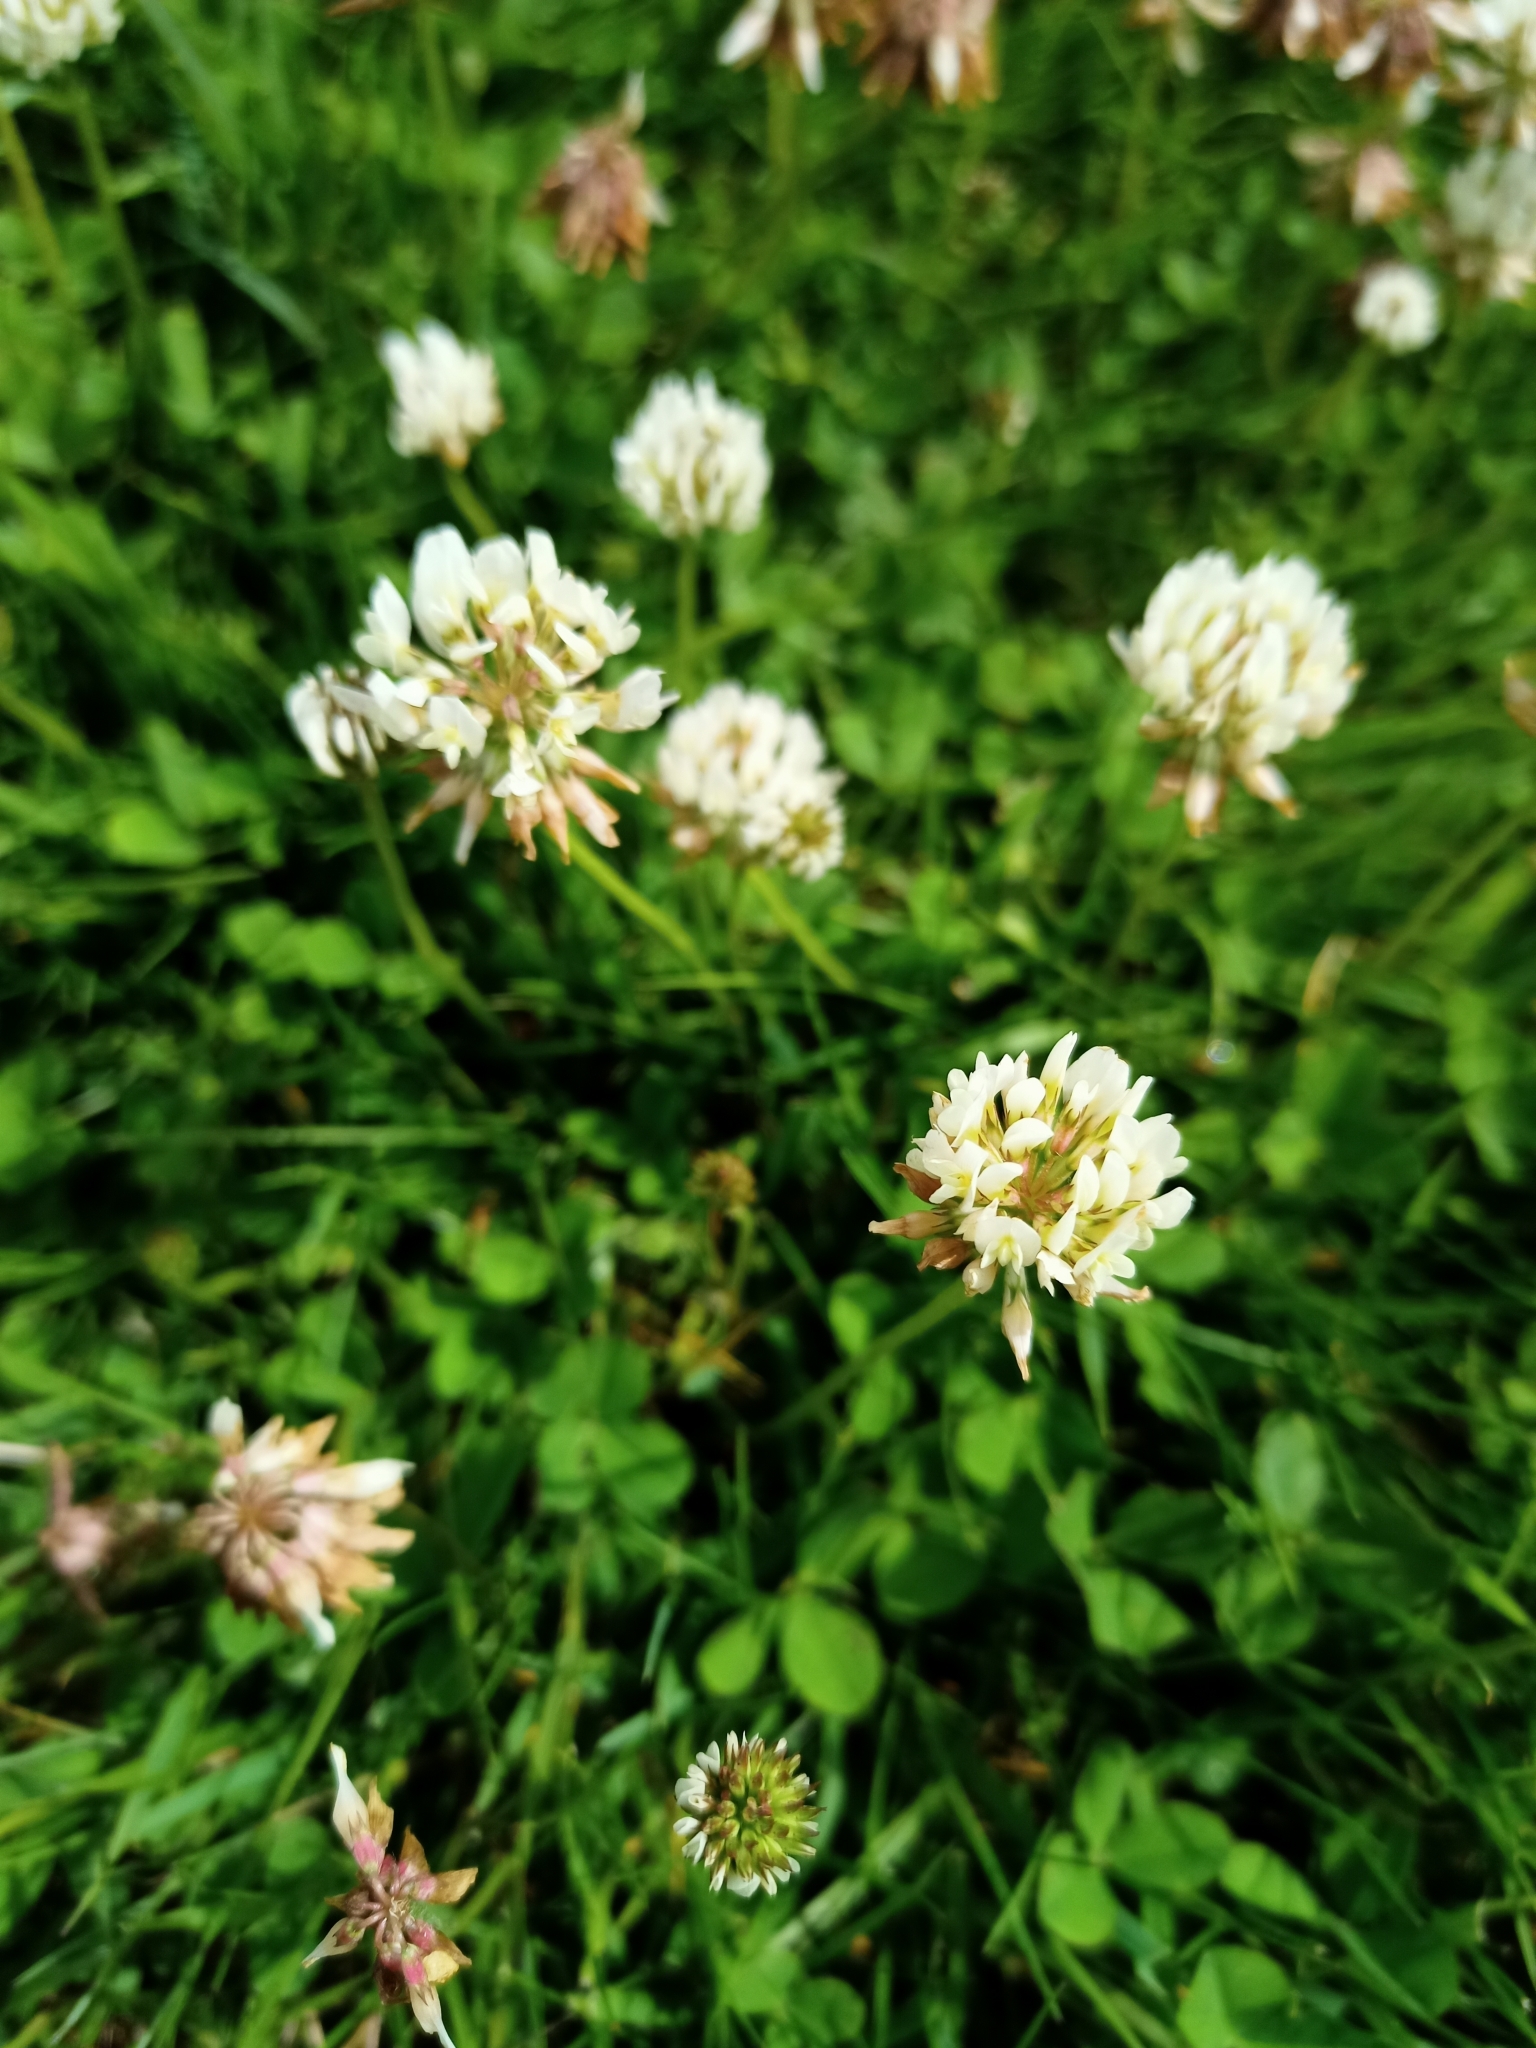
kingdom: Plantae
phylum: Tracheophyta
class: Magnoliopsida
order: Fabales
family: Fabaceae
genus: Trifolium
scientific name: Trifolium repens
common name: White clover
